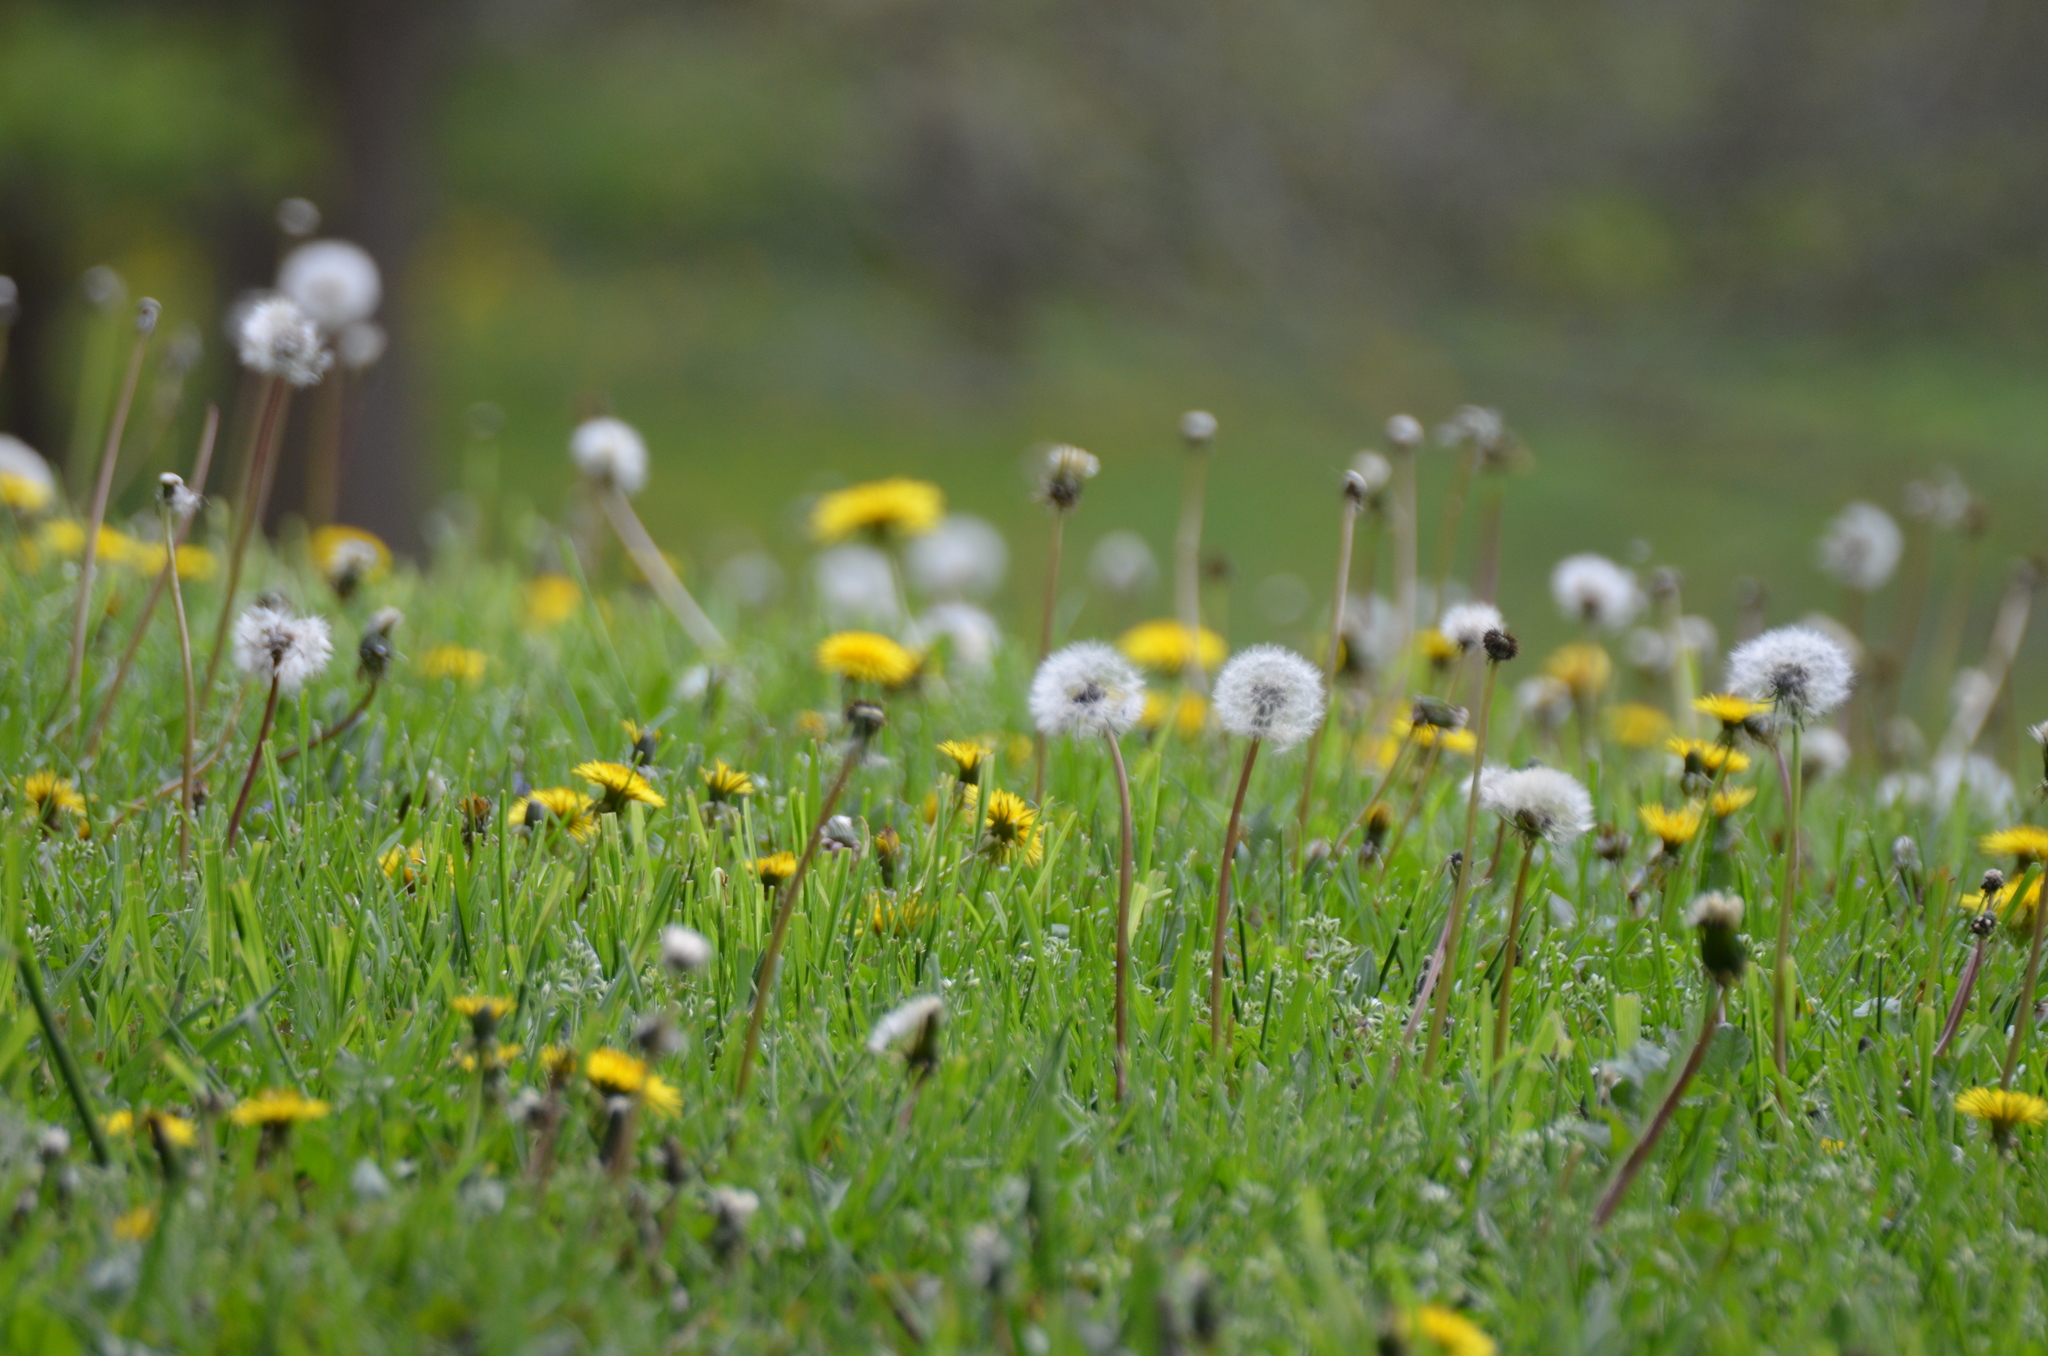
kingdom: Plantae
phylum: Tracheophyta
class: Magnoliopsida
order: Asterales
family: Asteraceae
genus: Taraxacum
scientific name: Taraxacum officinale
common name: Common dandelion
